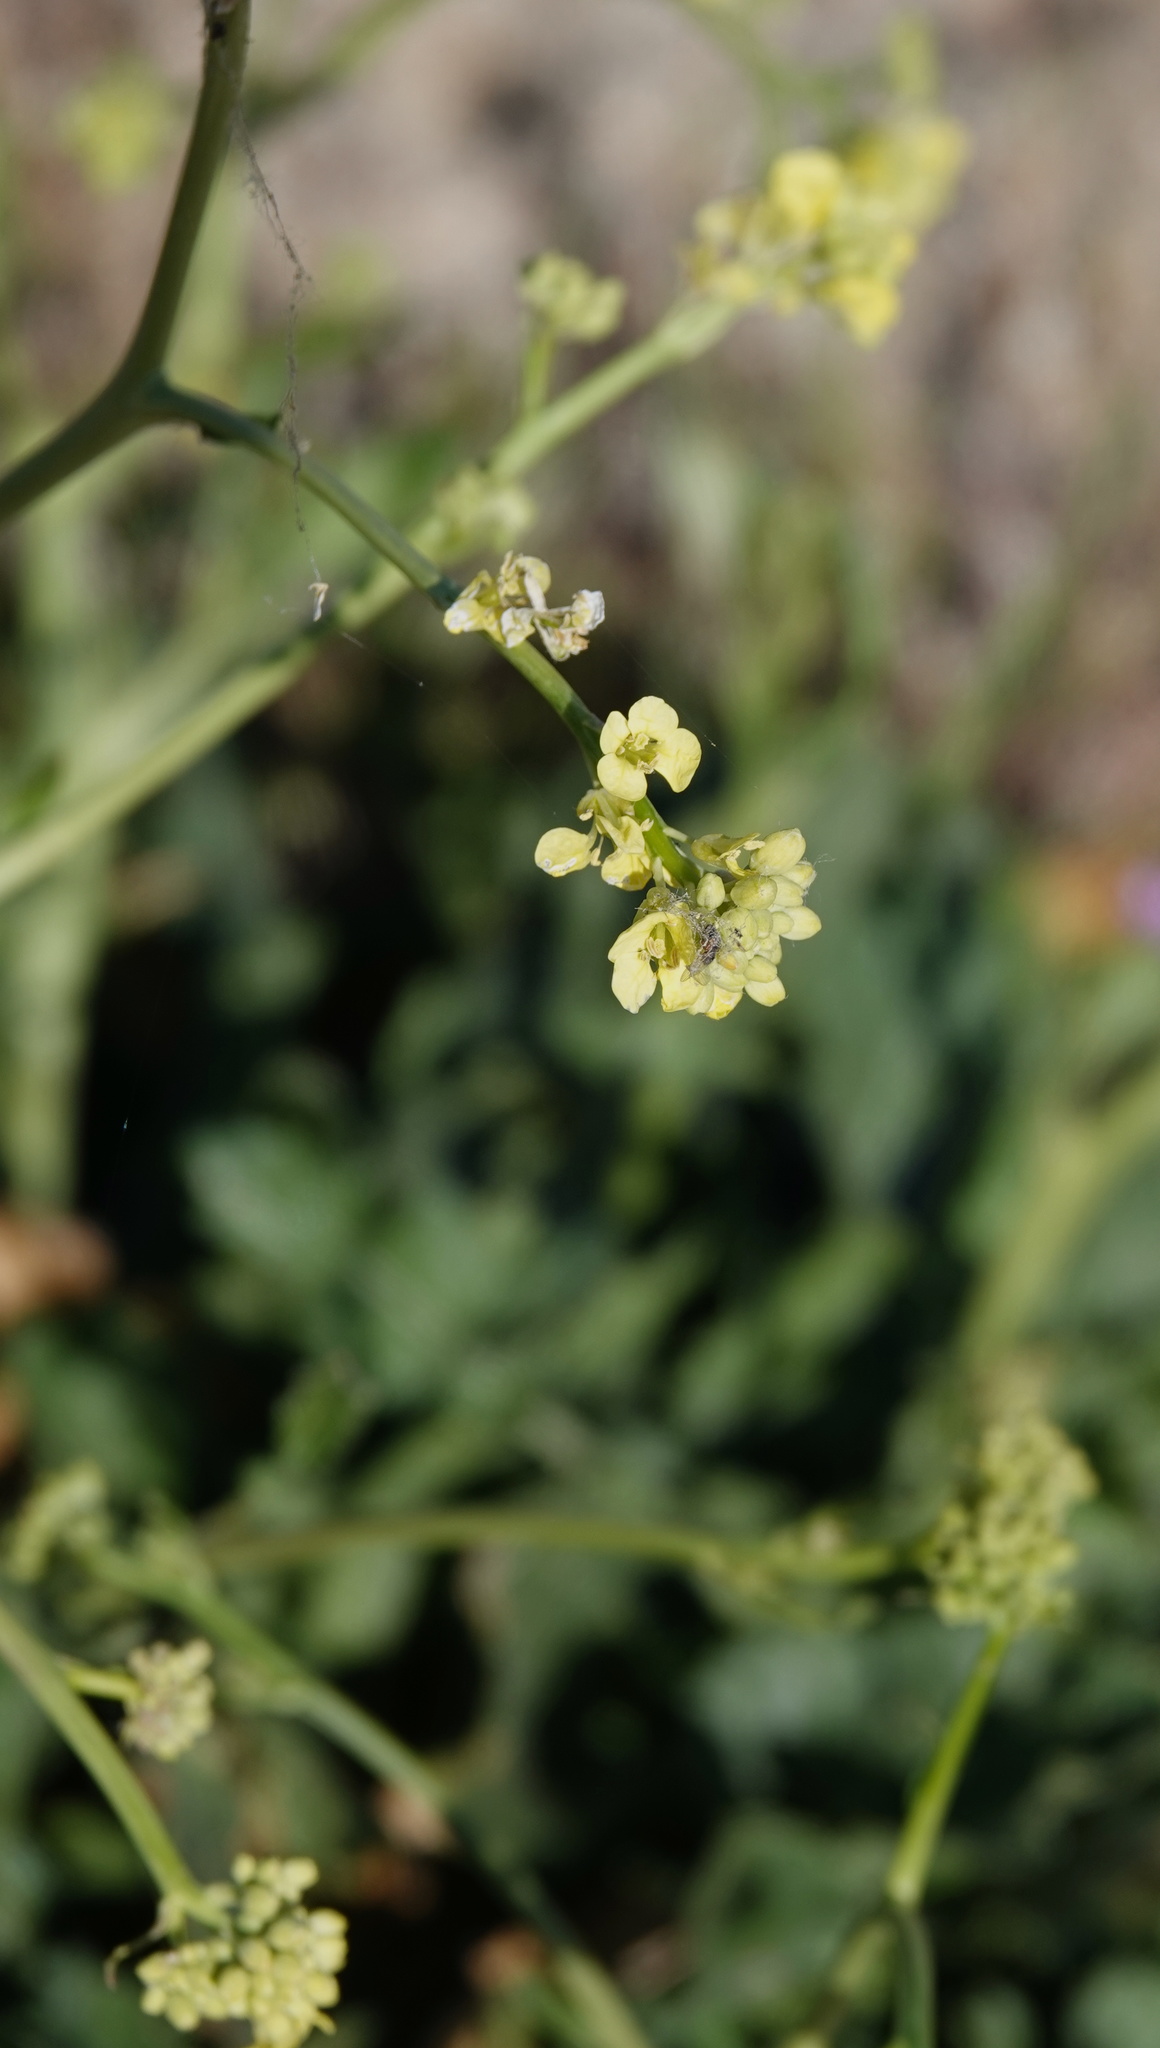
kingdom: Plantae
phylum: Tracheophyta
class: Magnoliopsida
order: Brassicales
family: Brassicaceae
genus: Hirschfeldia
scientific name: Hirschfeldia incana
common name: Hoary mustard
